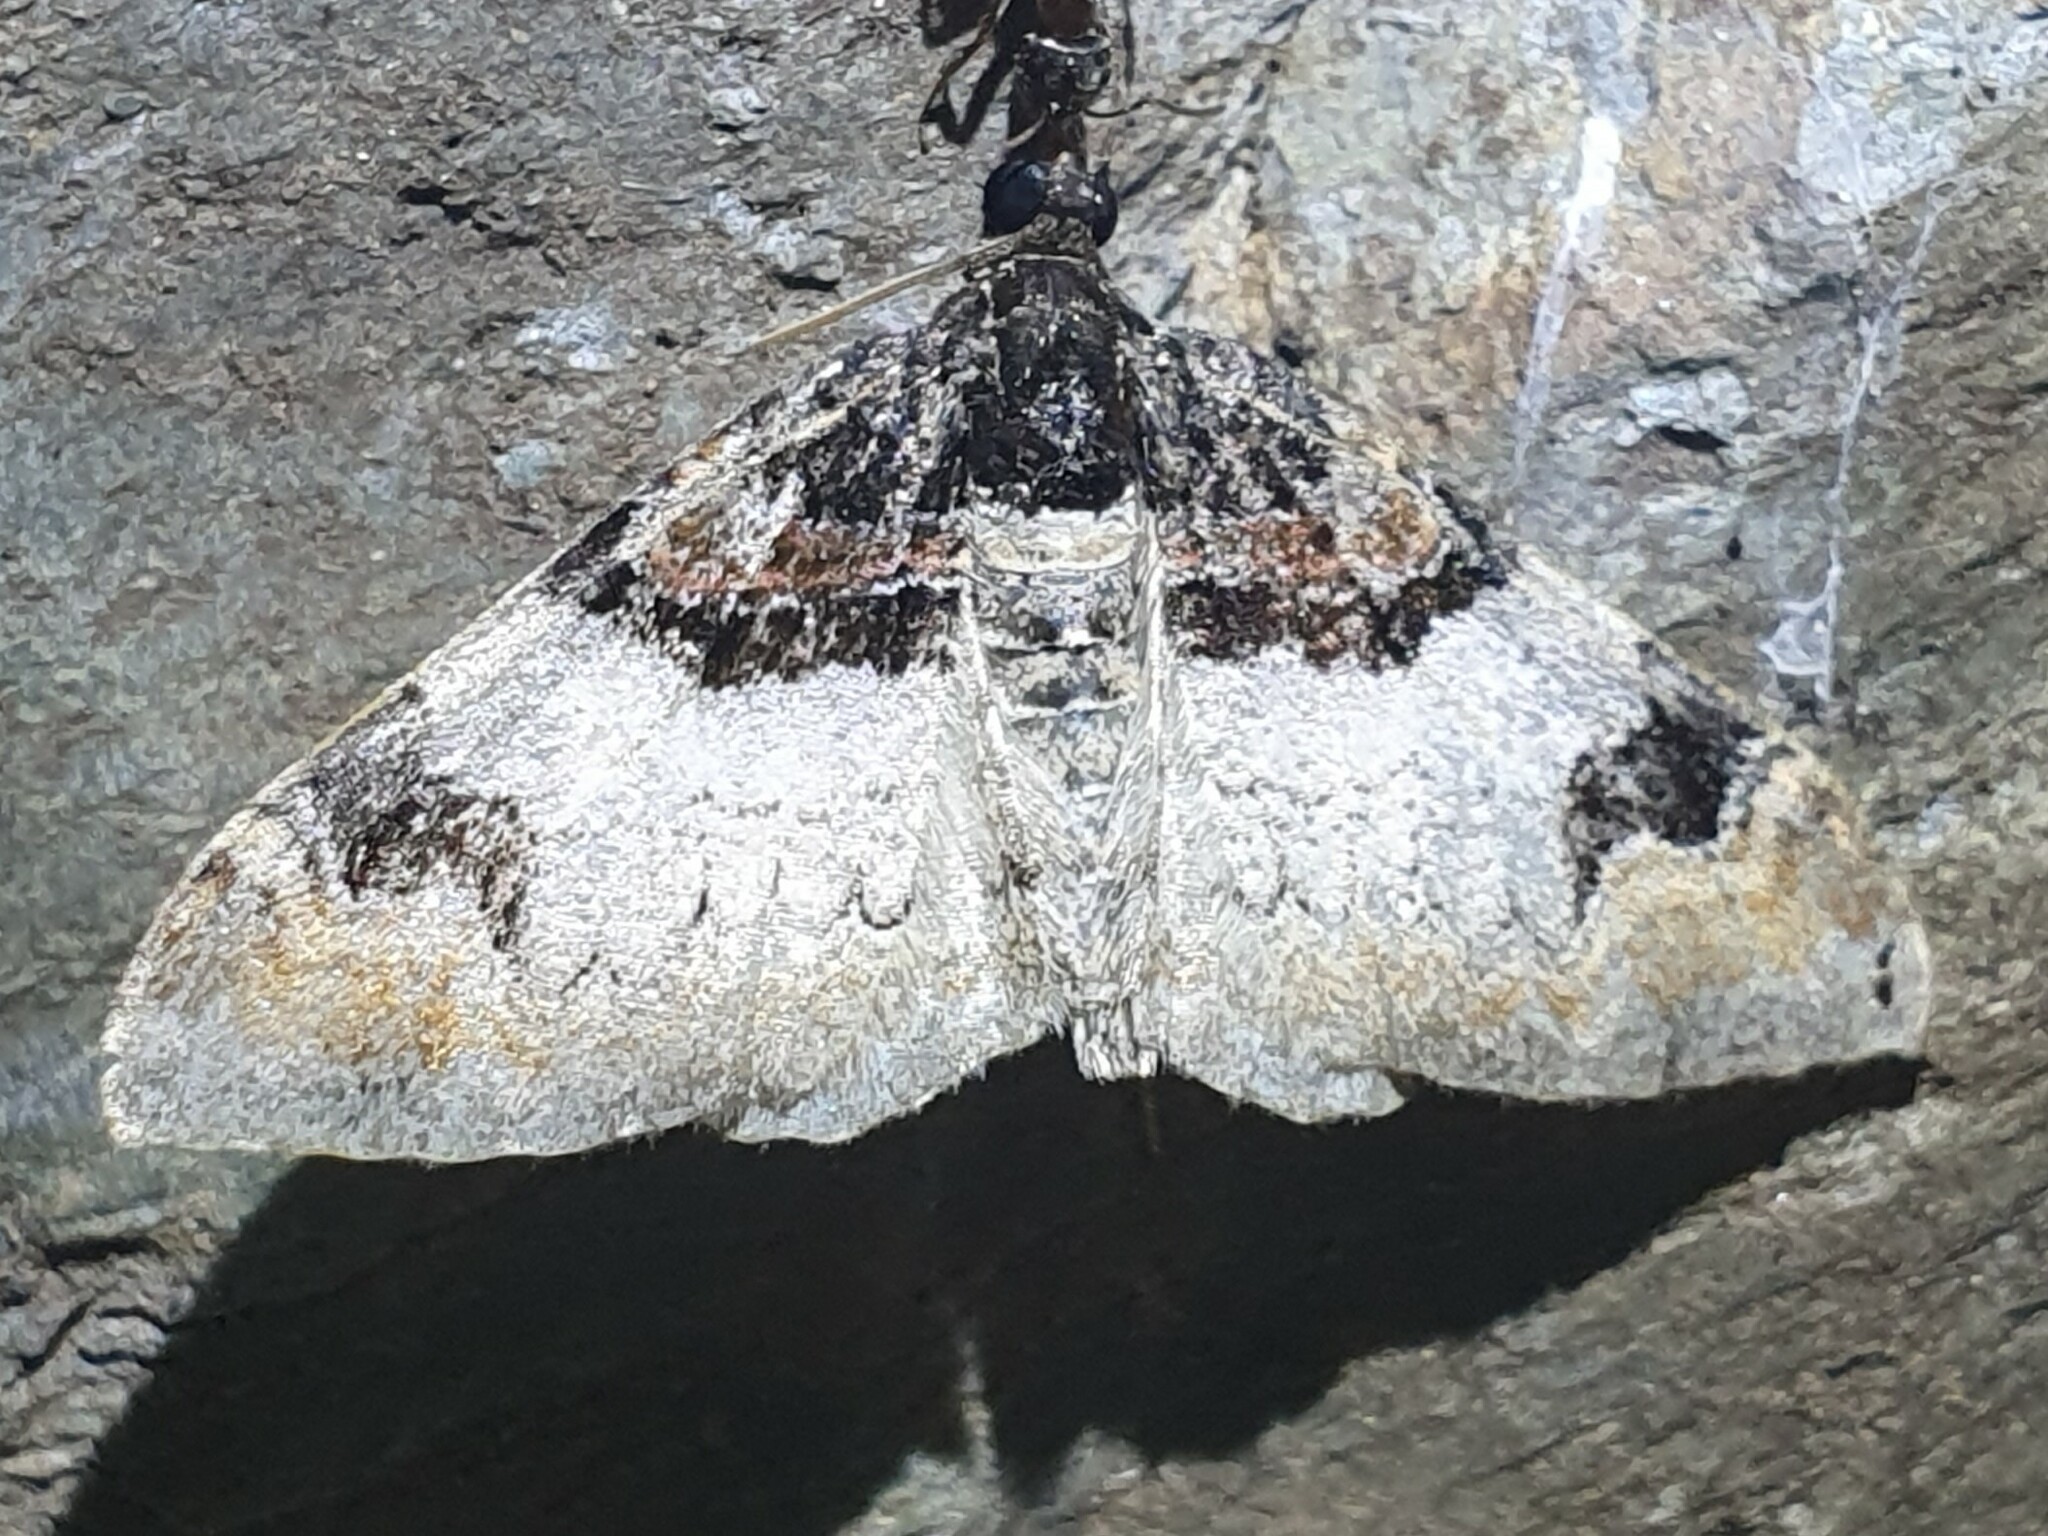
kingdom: Animalia
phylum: Arthropoda
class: Insecta
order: Lepidoptera
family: Geometridae
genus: Catarhoe
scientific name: Catarhoe cuculata
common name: Royal mantle
